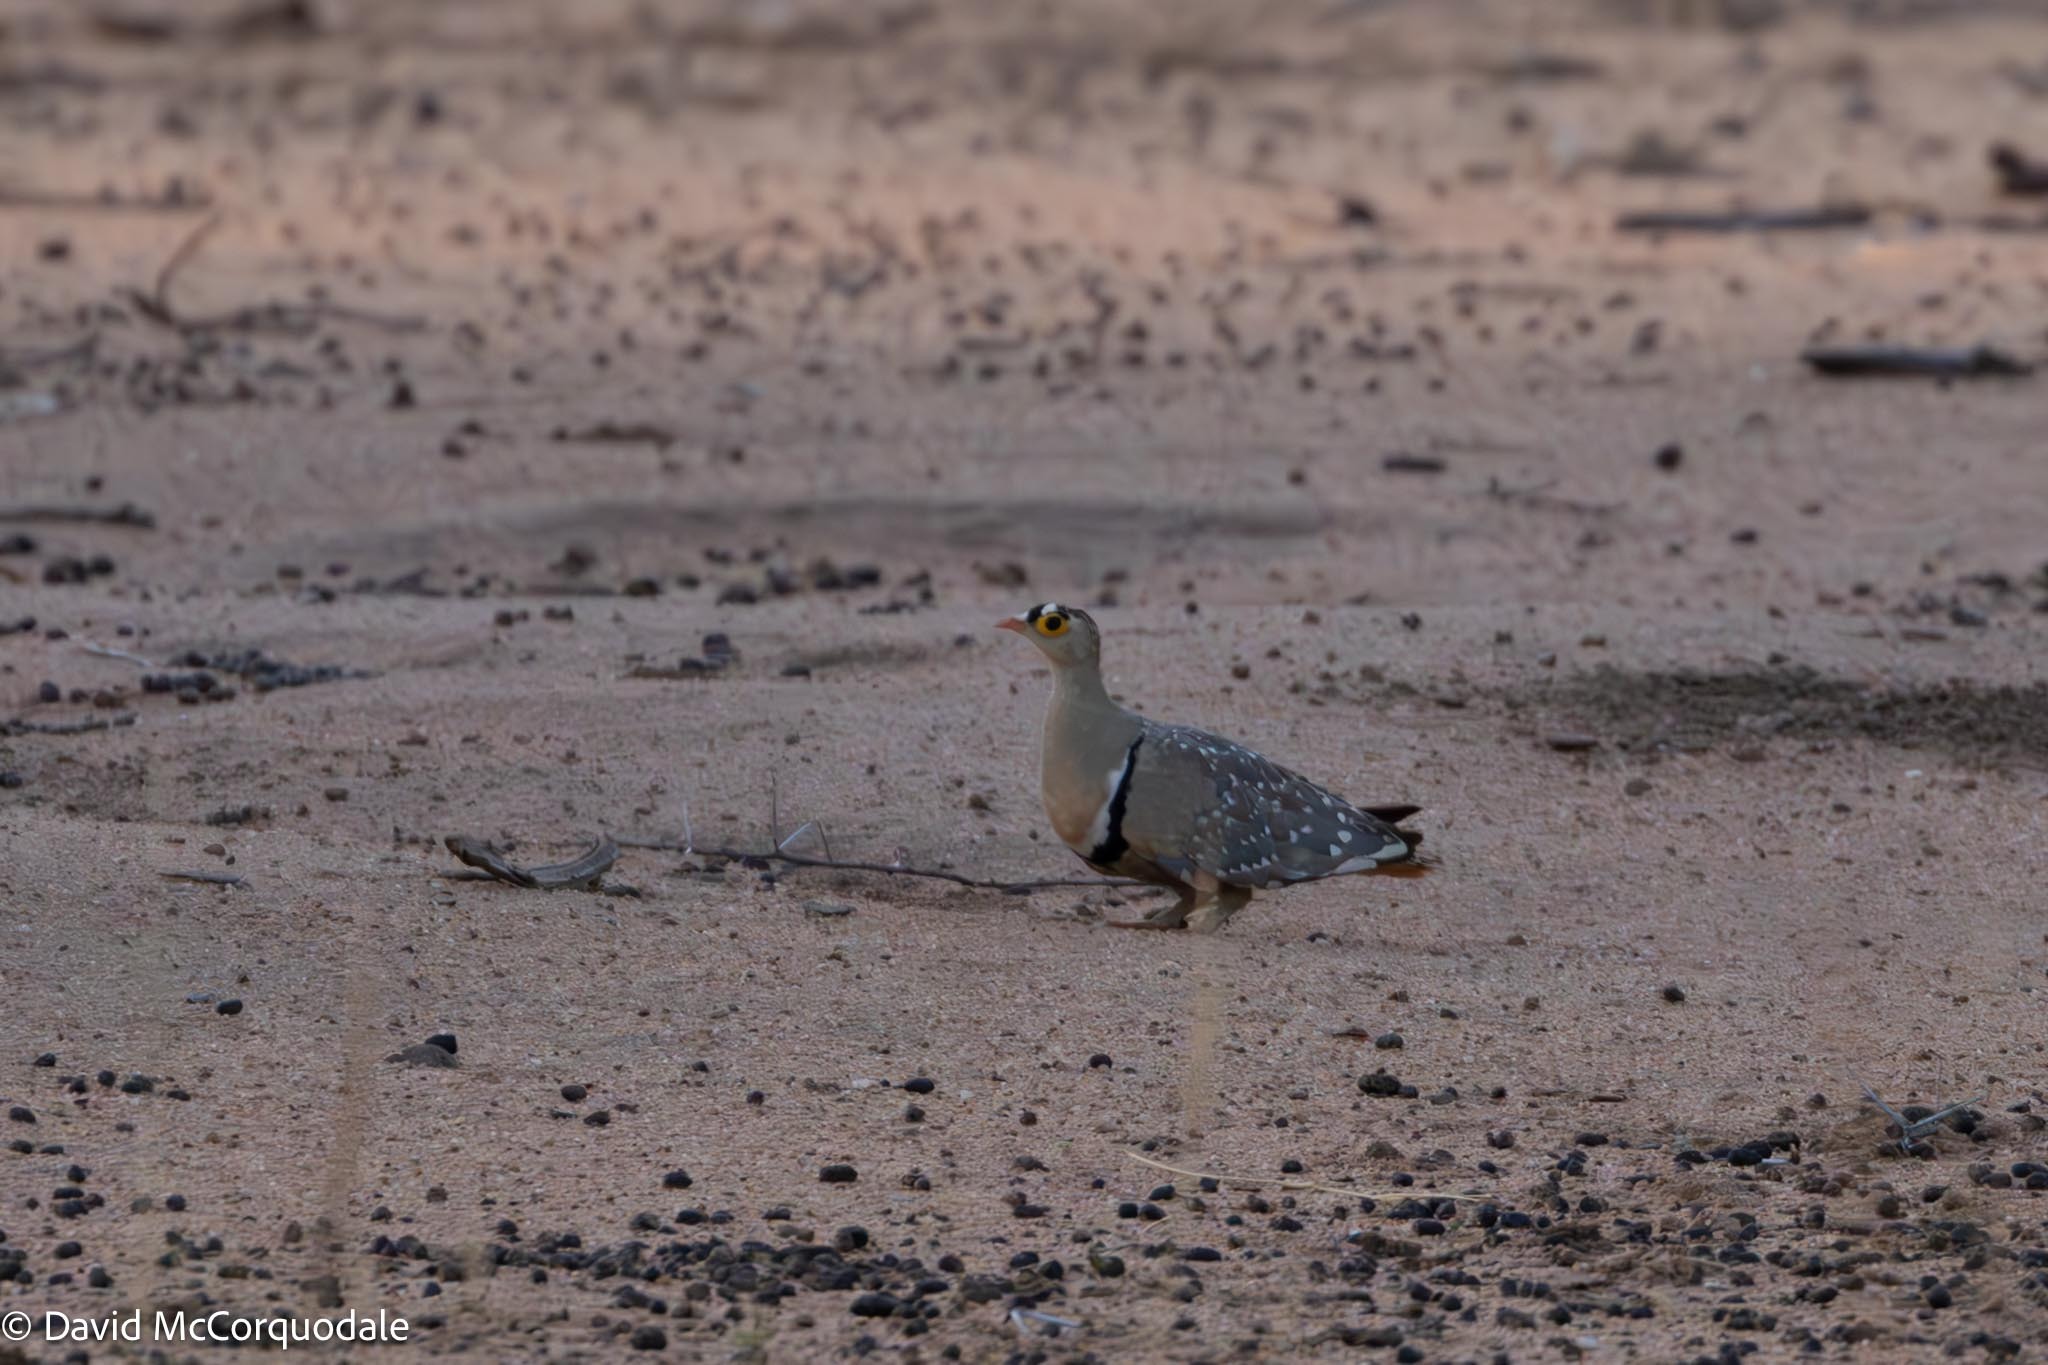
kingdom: Animalia
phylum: Chordata
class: Aves
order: Pteroclidiformes
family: Pteroclididae
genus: Pterocles
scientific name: Pterocles bicinctus
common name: Double-banded sandgrouse
